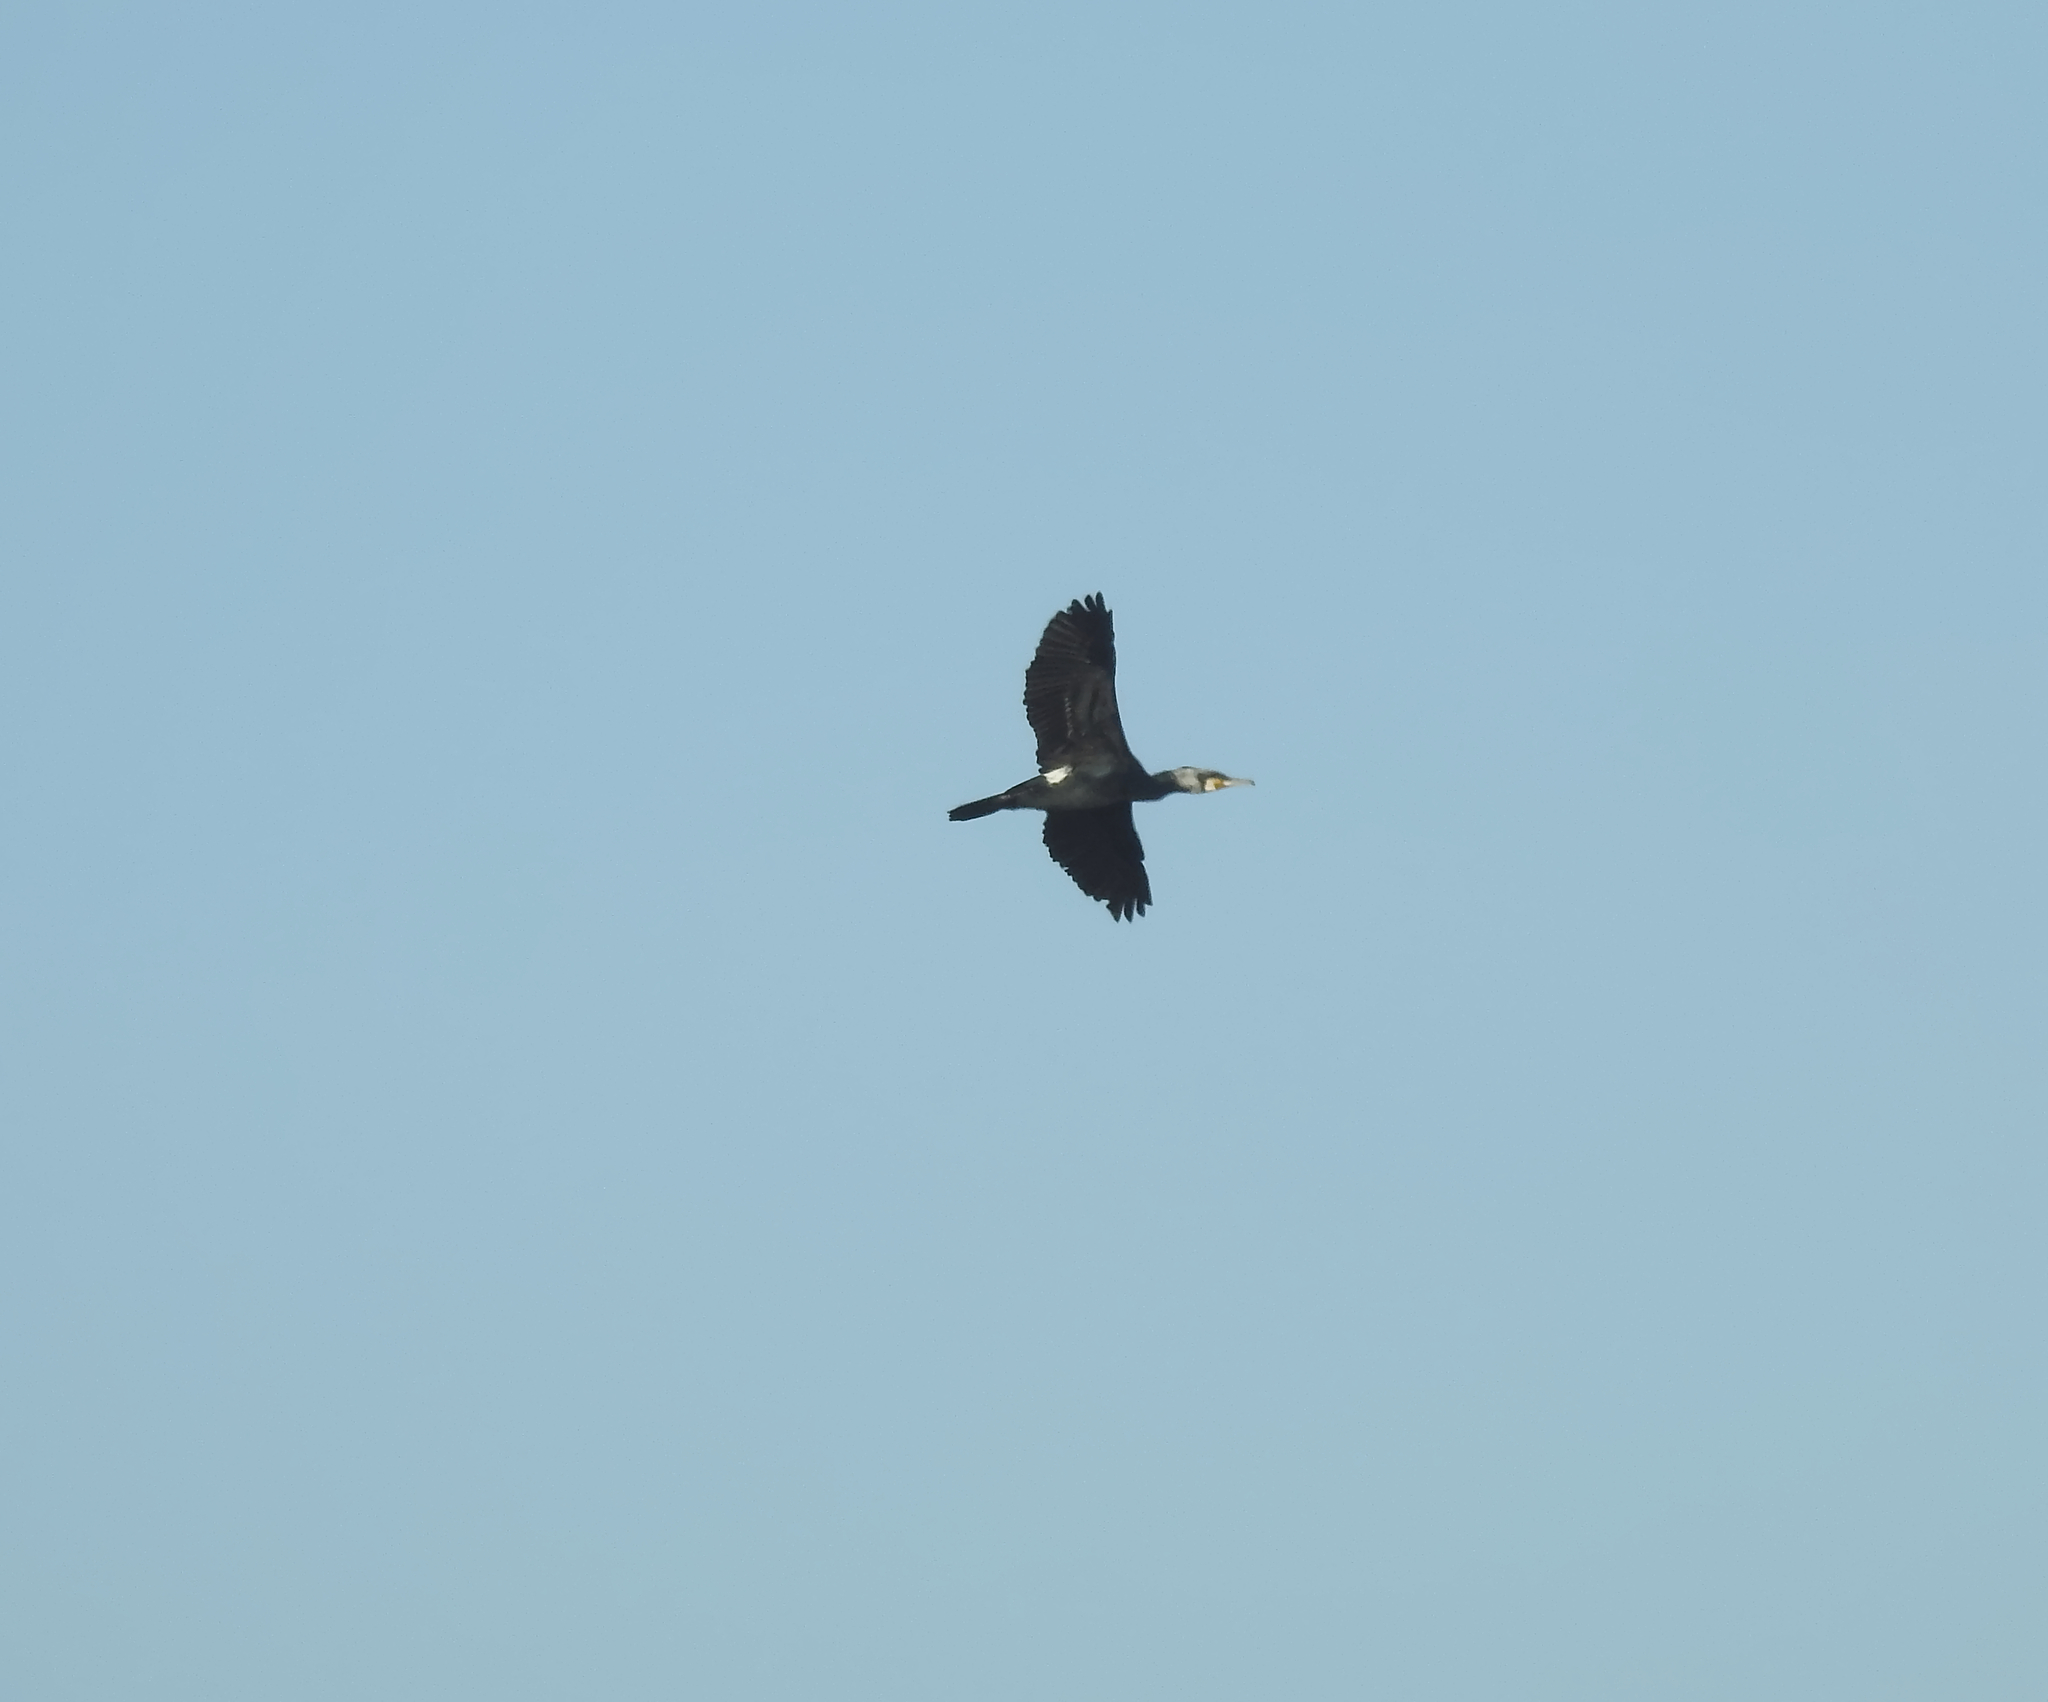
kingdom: Animalia
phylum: Chordata
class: Aves
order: Suliformes
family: Phalacrocoracidae
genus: Phalacrocorax
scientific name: Phalacrocorax carbo
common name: Great cormorant
